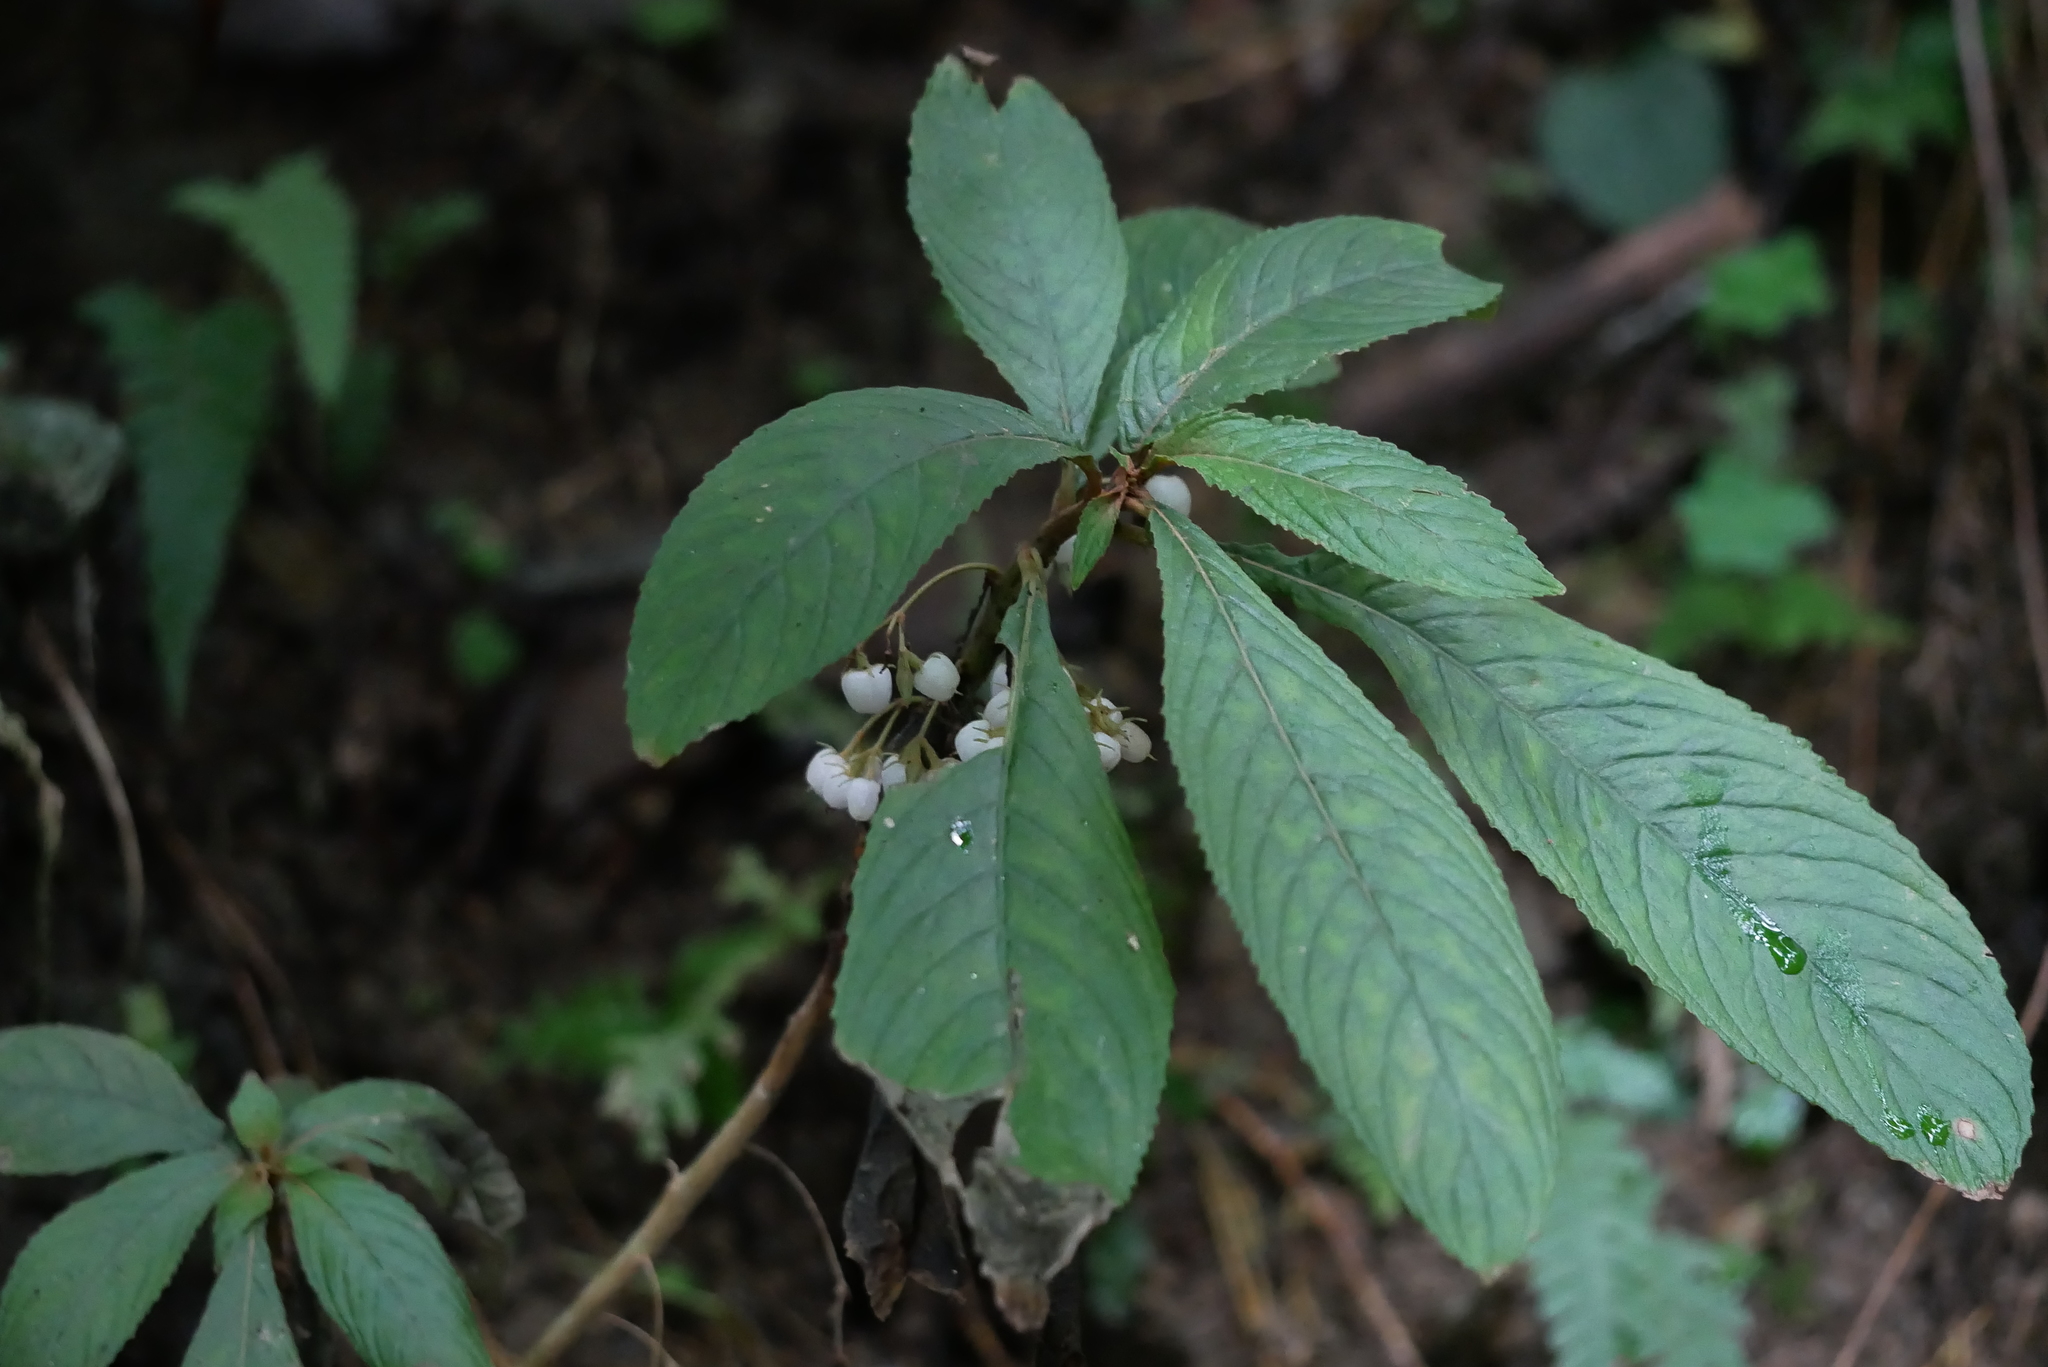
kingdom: Plantae
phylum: Tracheophyta
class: Magnoliopsida
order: Lamiales
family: Gesneriaceae
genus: Rhynchotechum
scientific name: Rhynchotechum discolor
